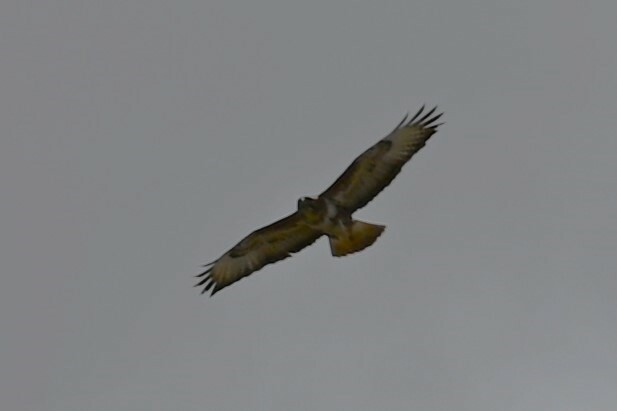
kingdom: Animalia
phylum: Chordata
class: Aves
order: Accipitriformes
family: Accipitridae
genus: Buteo
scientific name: Buteo buteo
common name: Common buzzard
